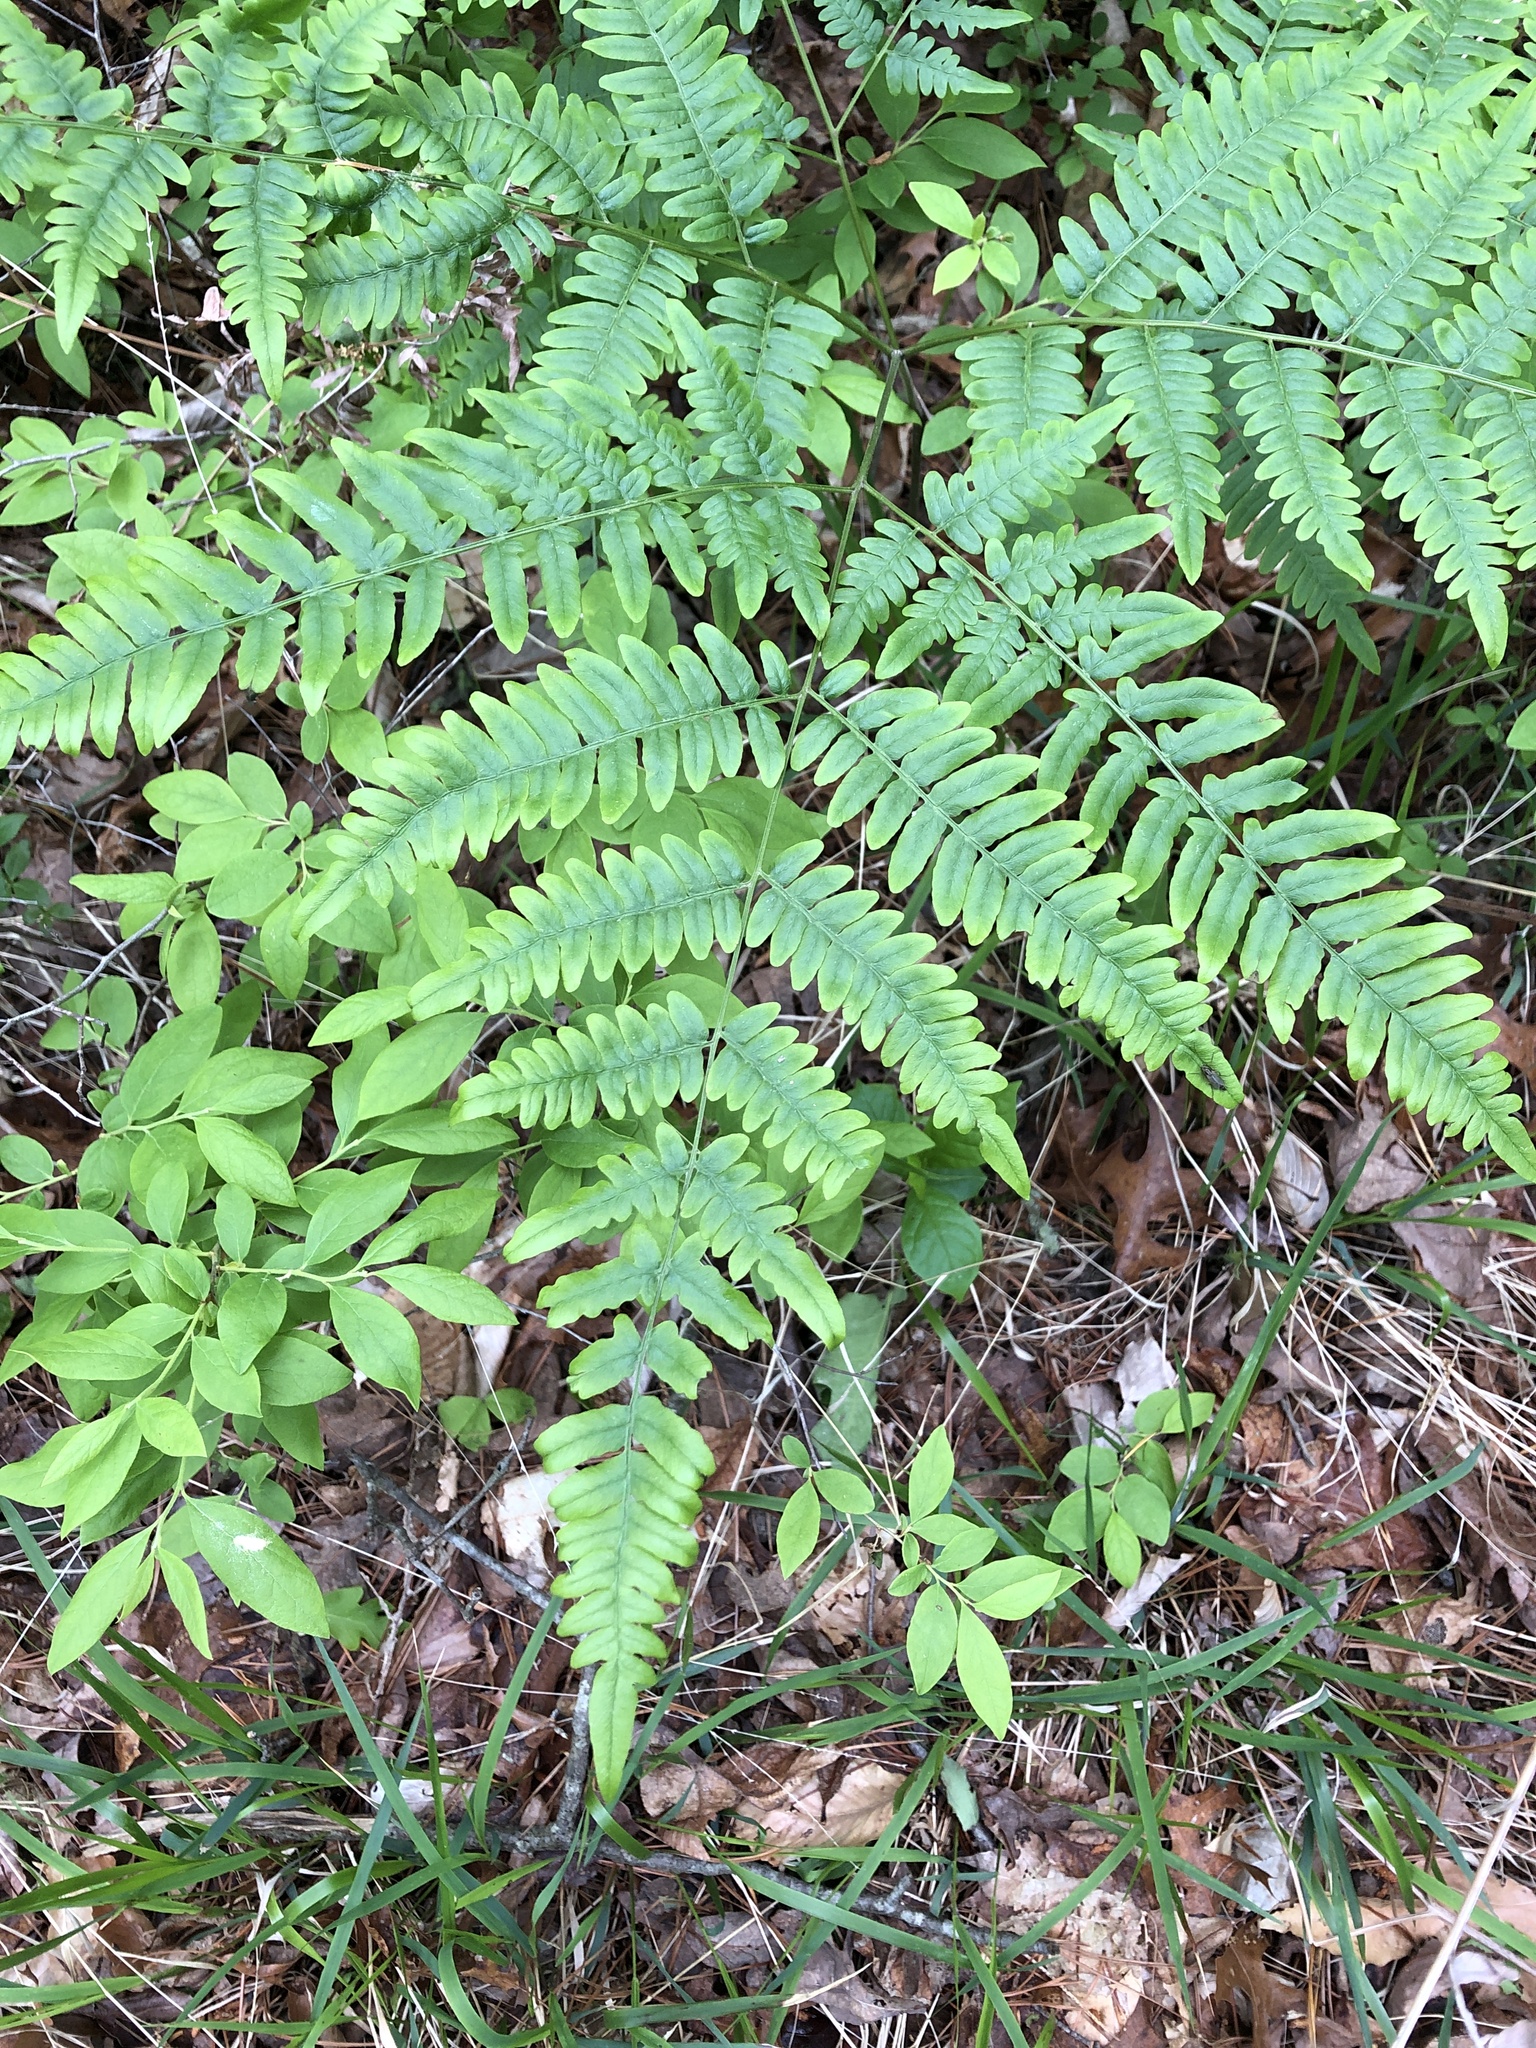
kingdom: Plantae
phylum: Tracheophyta
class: Polypodiopsida
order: Polypodiales
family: Dennstaedtiaceae
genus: Pteridium
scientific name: Pteridium aquilinum
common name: Bracken
